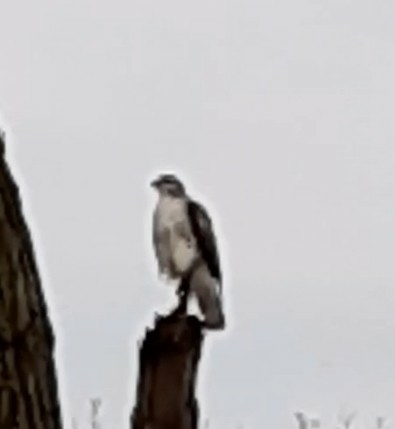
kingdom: Animalia
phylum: Chordata
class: Aves
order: Accipitriformes
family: Accipitridae
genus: Buteo
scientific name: Buteo jamaicensis
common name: Red-tailed hawk
